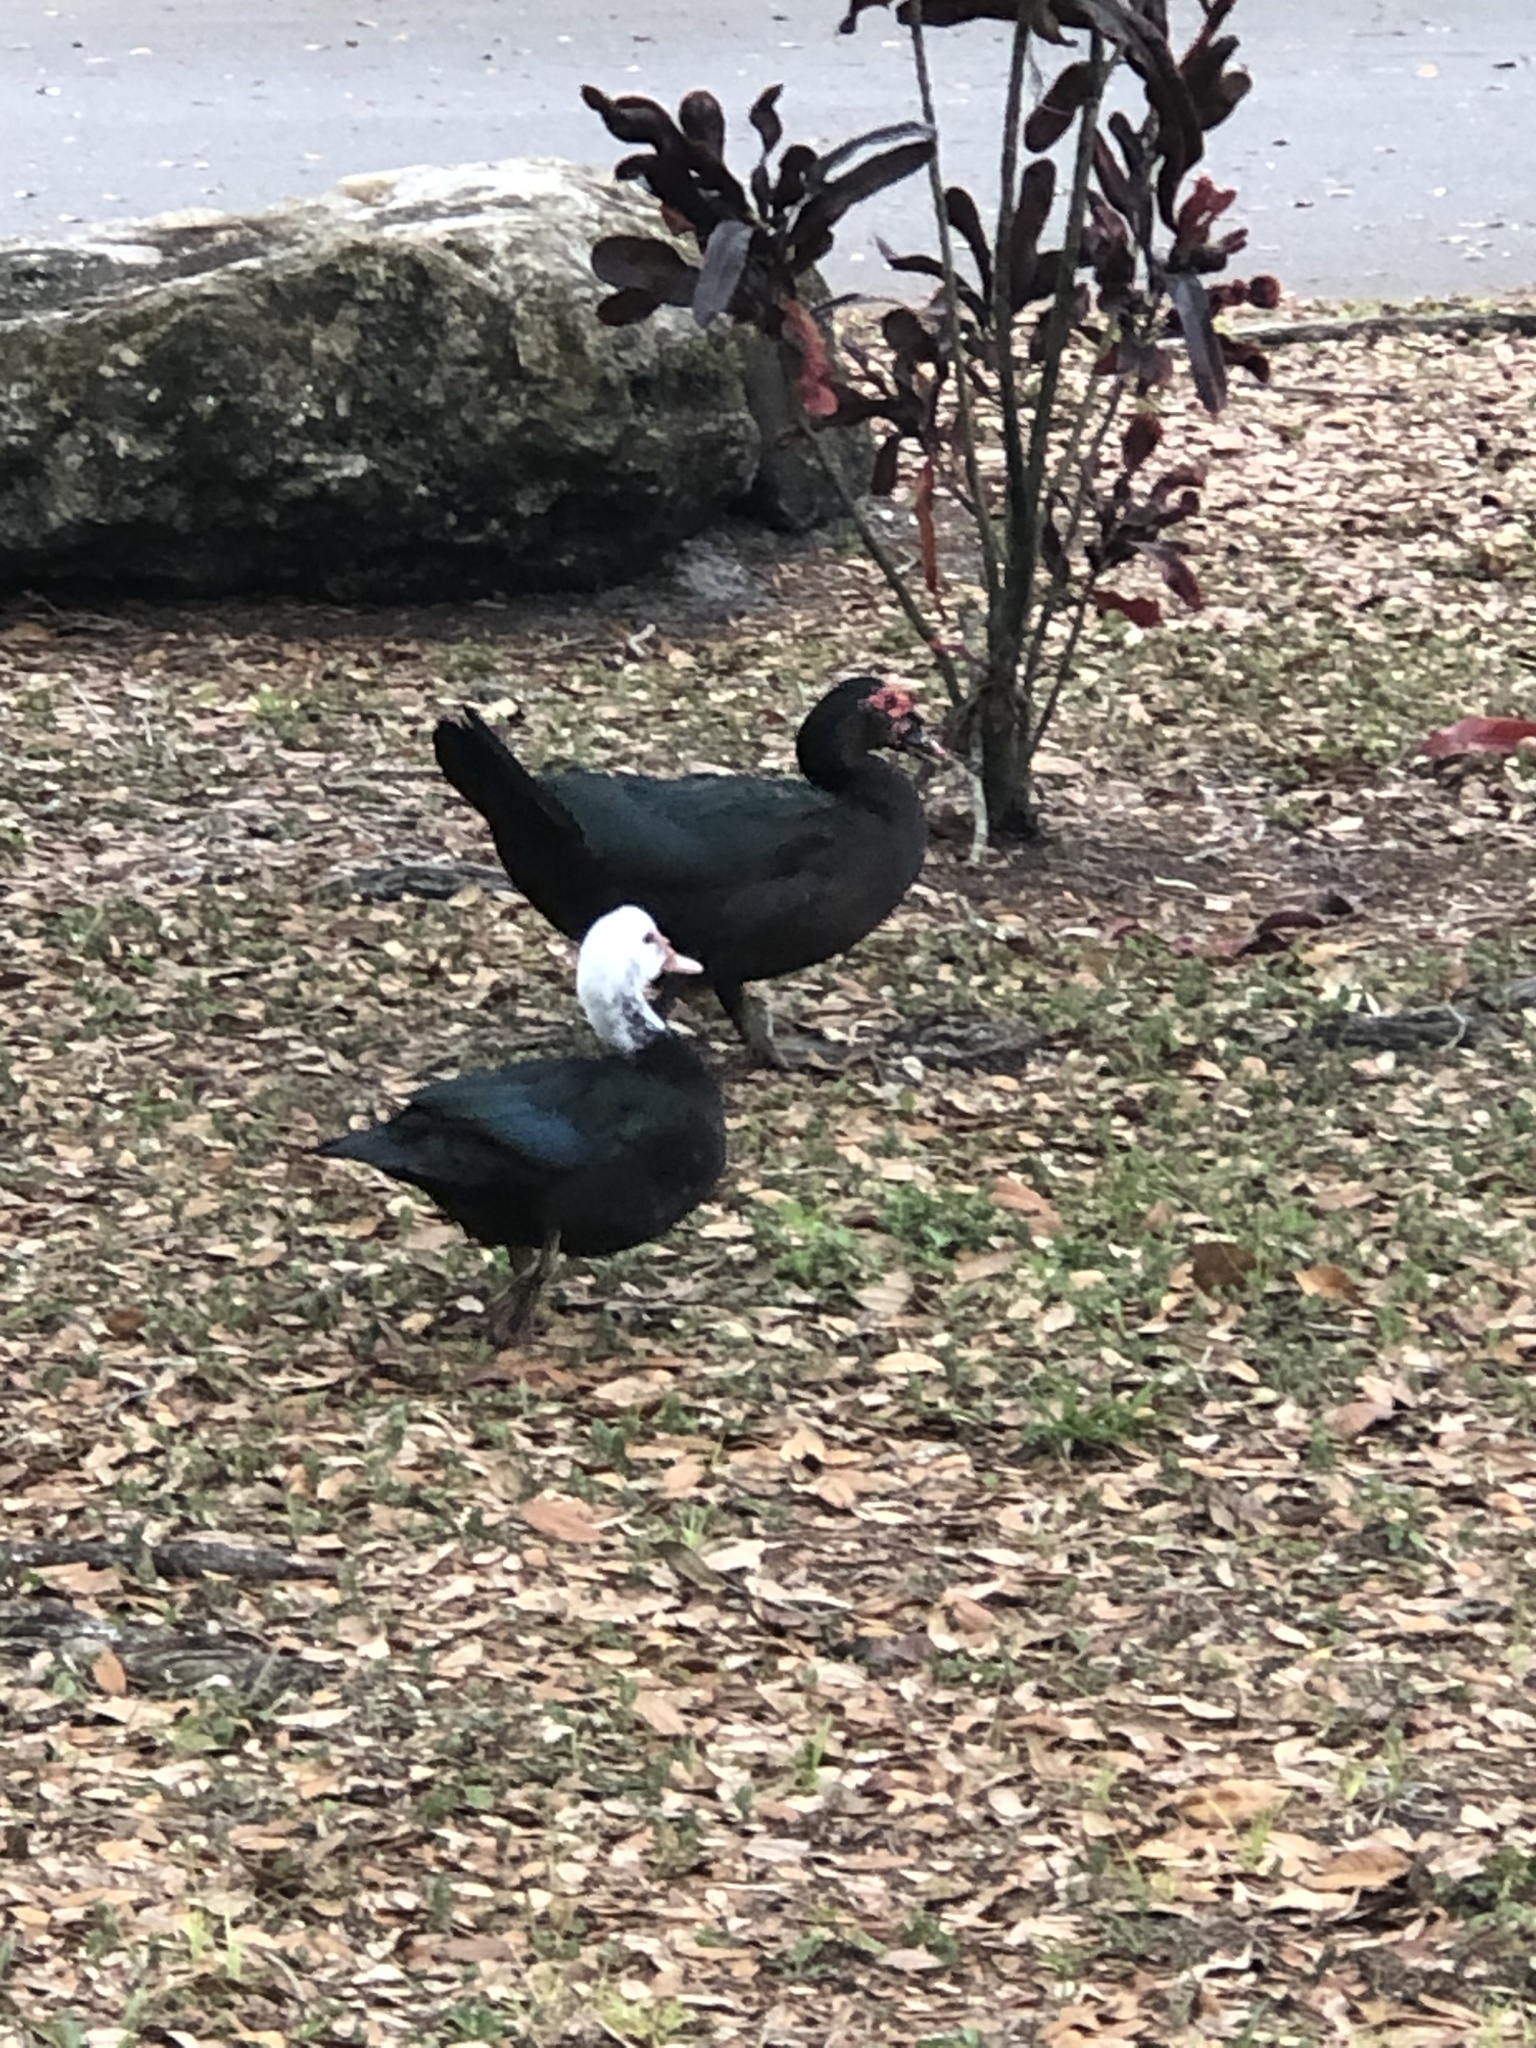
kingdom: Animalia
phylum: Chordata
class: Aves
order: Anseriformes
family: Anatidae
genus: Cairina
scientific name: Cairina moschata
